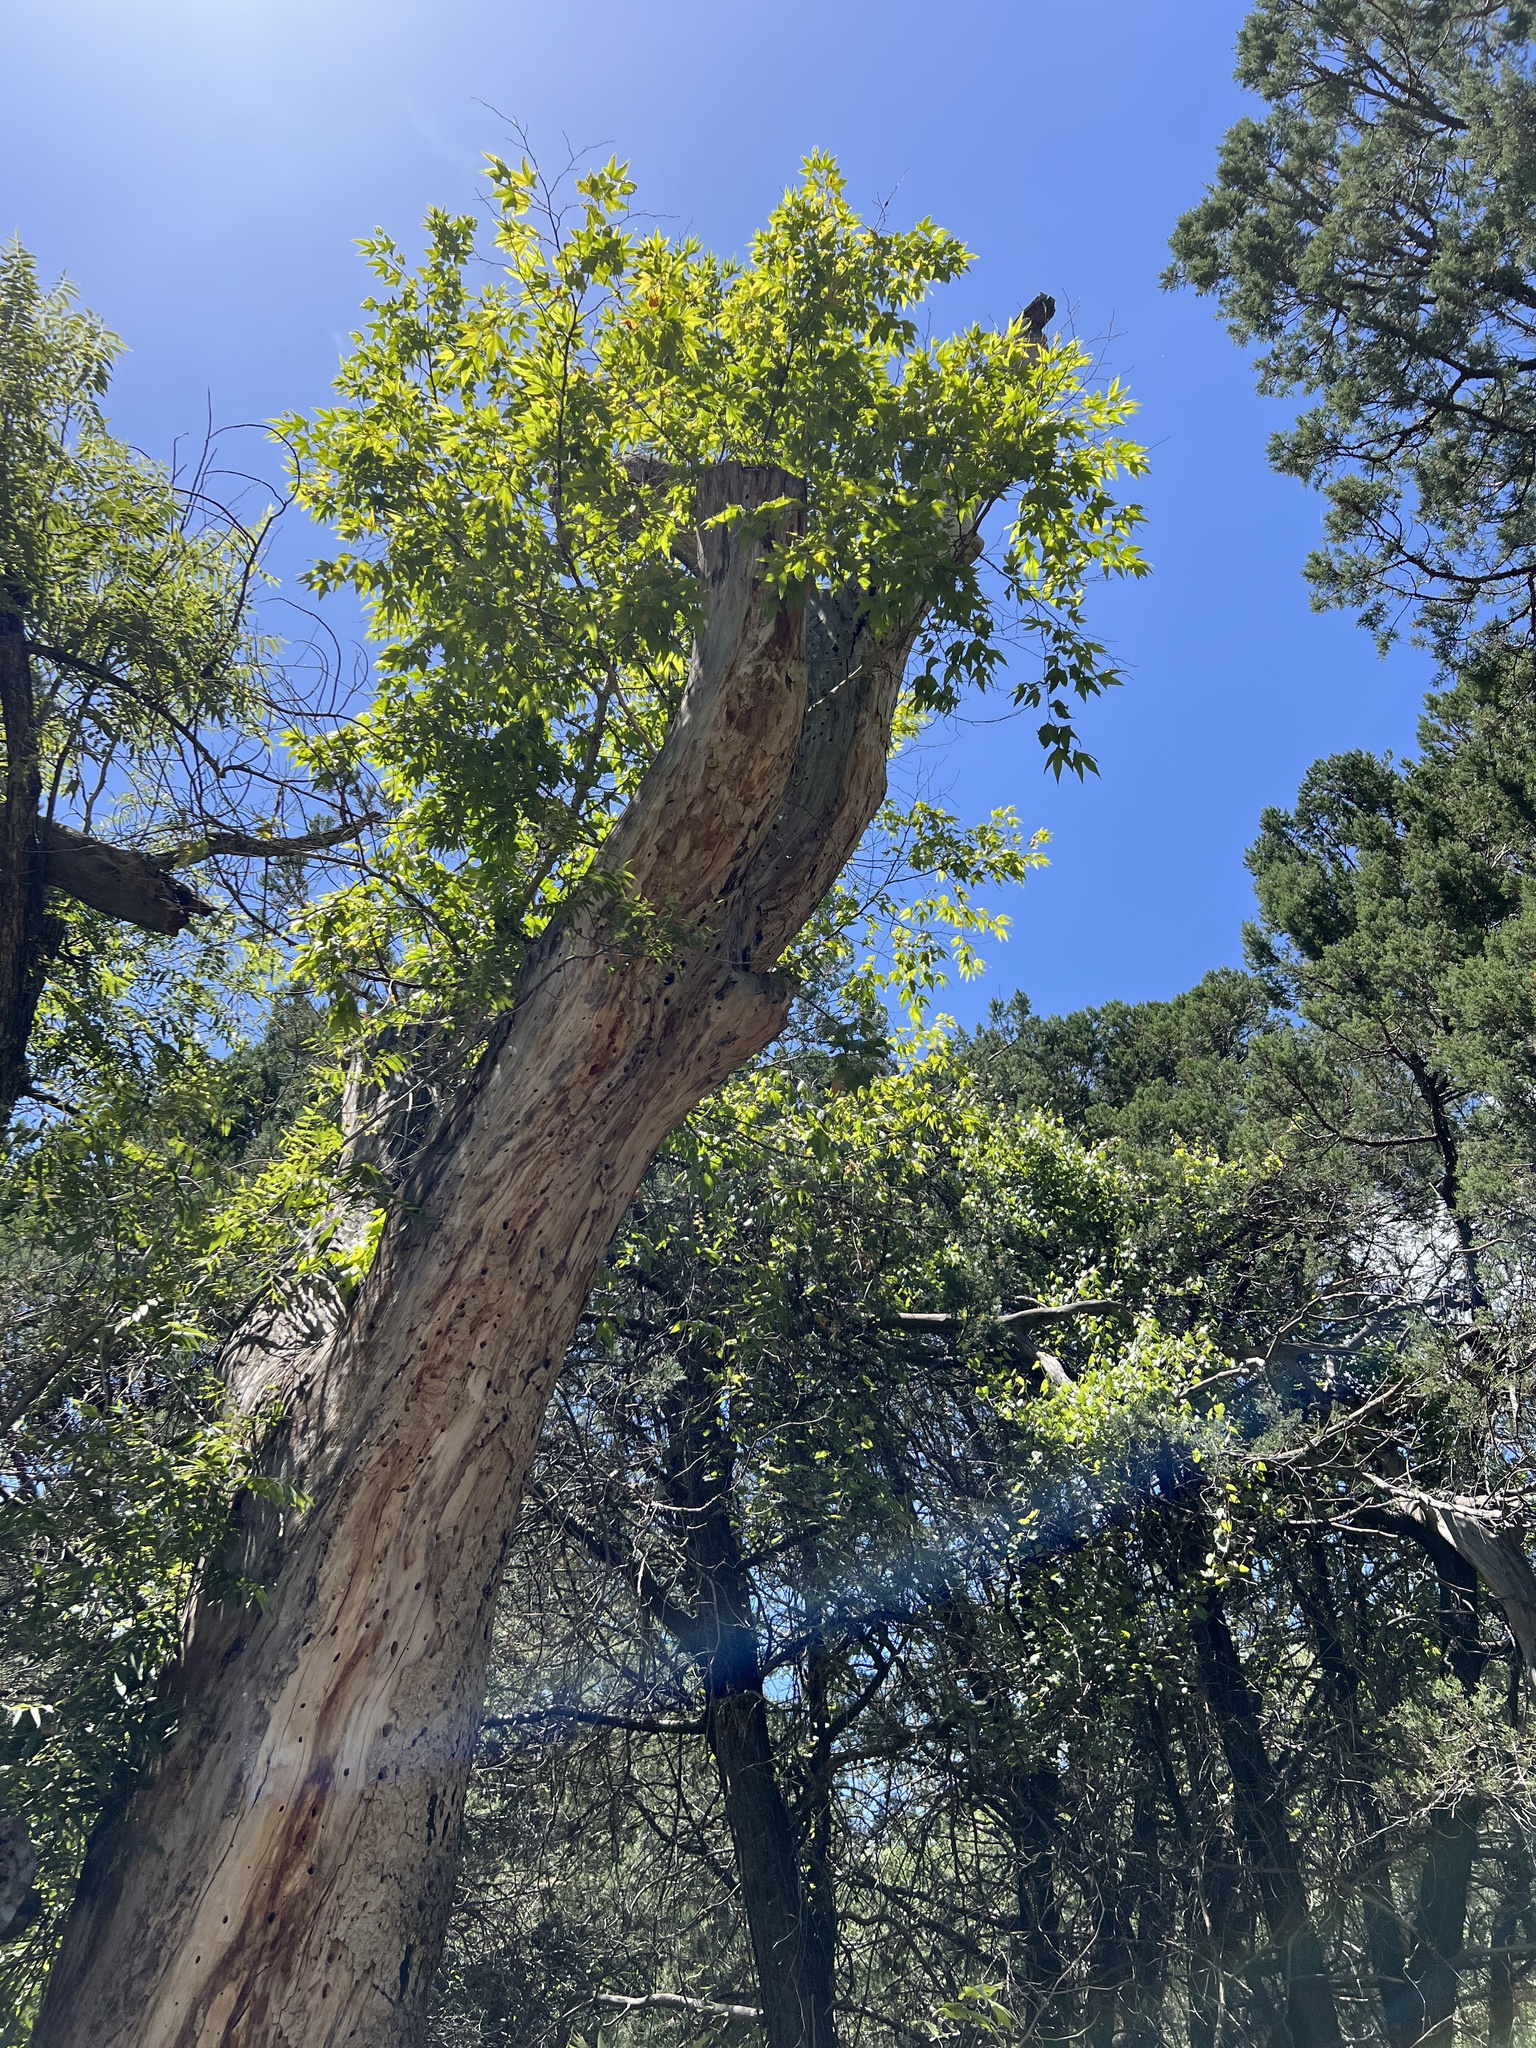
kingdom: Plantae
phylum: Tracheophyta
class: Magnoliopsida
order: Proteales
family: Platanaceae
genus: Platanus
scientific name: Platanus wrightii
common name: Arizona sycamore
